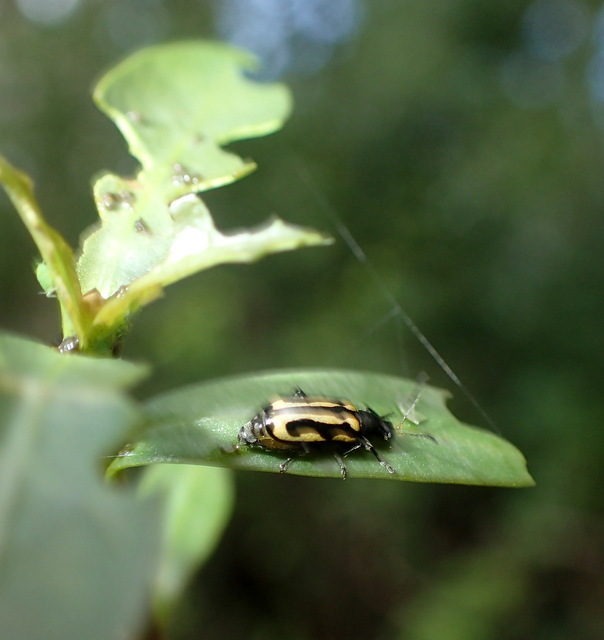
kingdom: Animalia
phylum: Arthropoda
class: Insecta
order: Coleoptera
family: Chrysomelidae
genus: Agasicles
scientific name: Agasicles hygrophila
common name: Alligatorweed flea beetle
